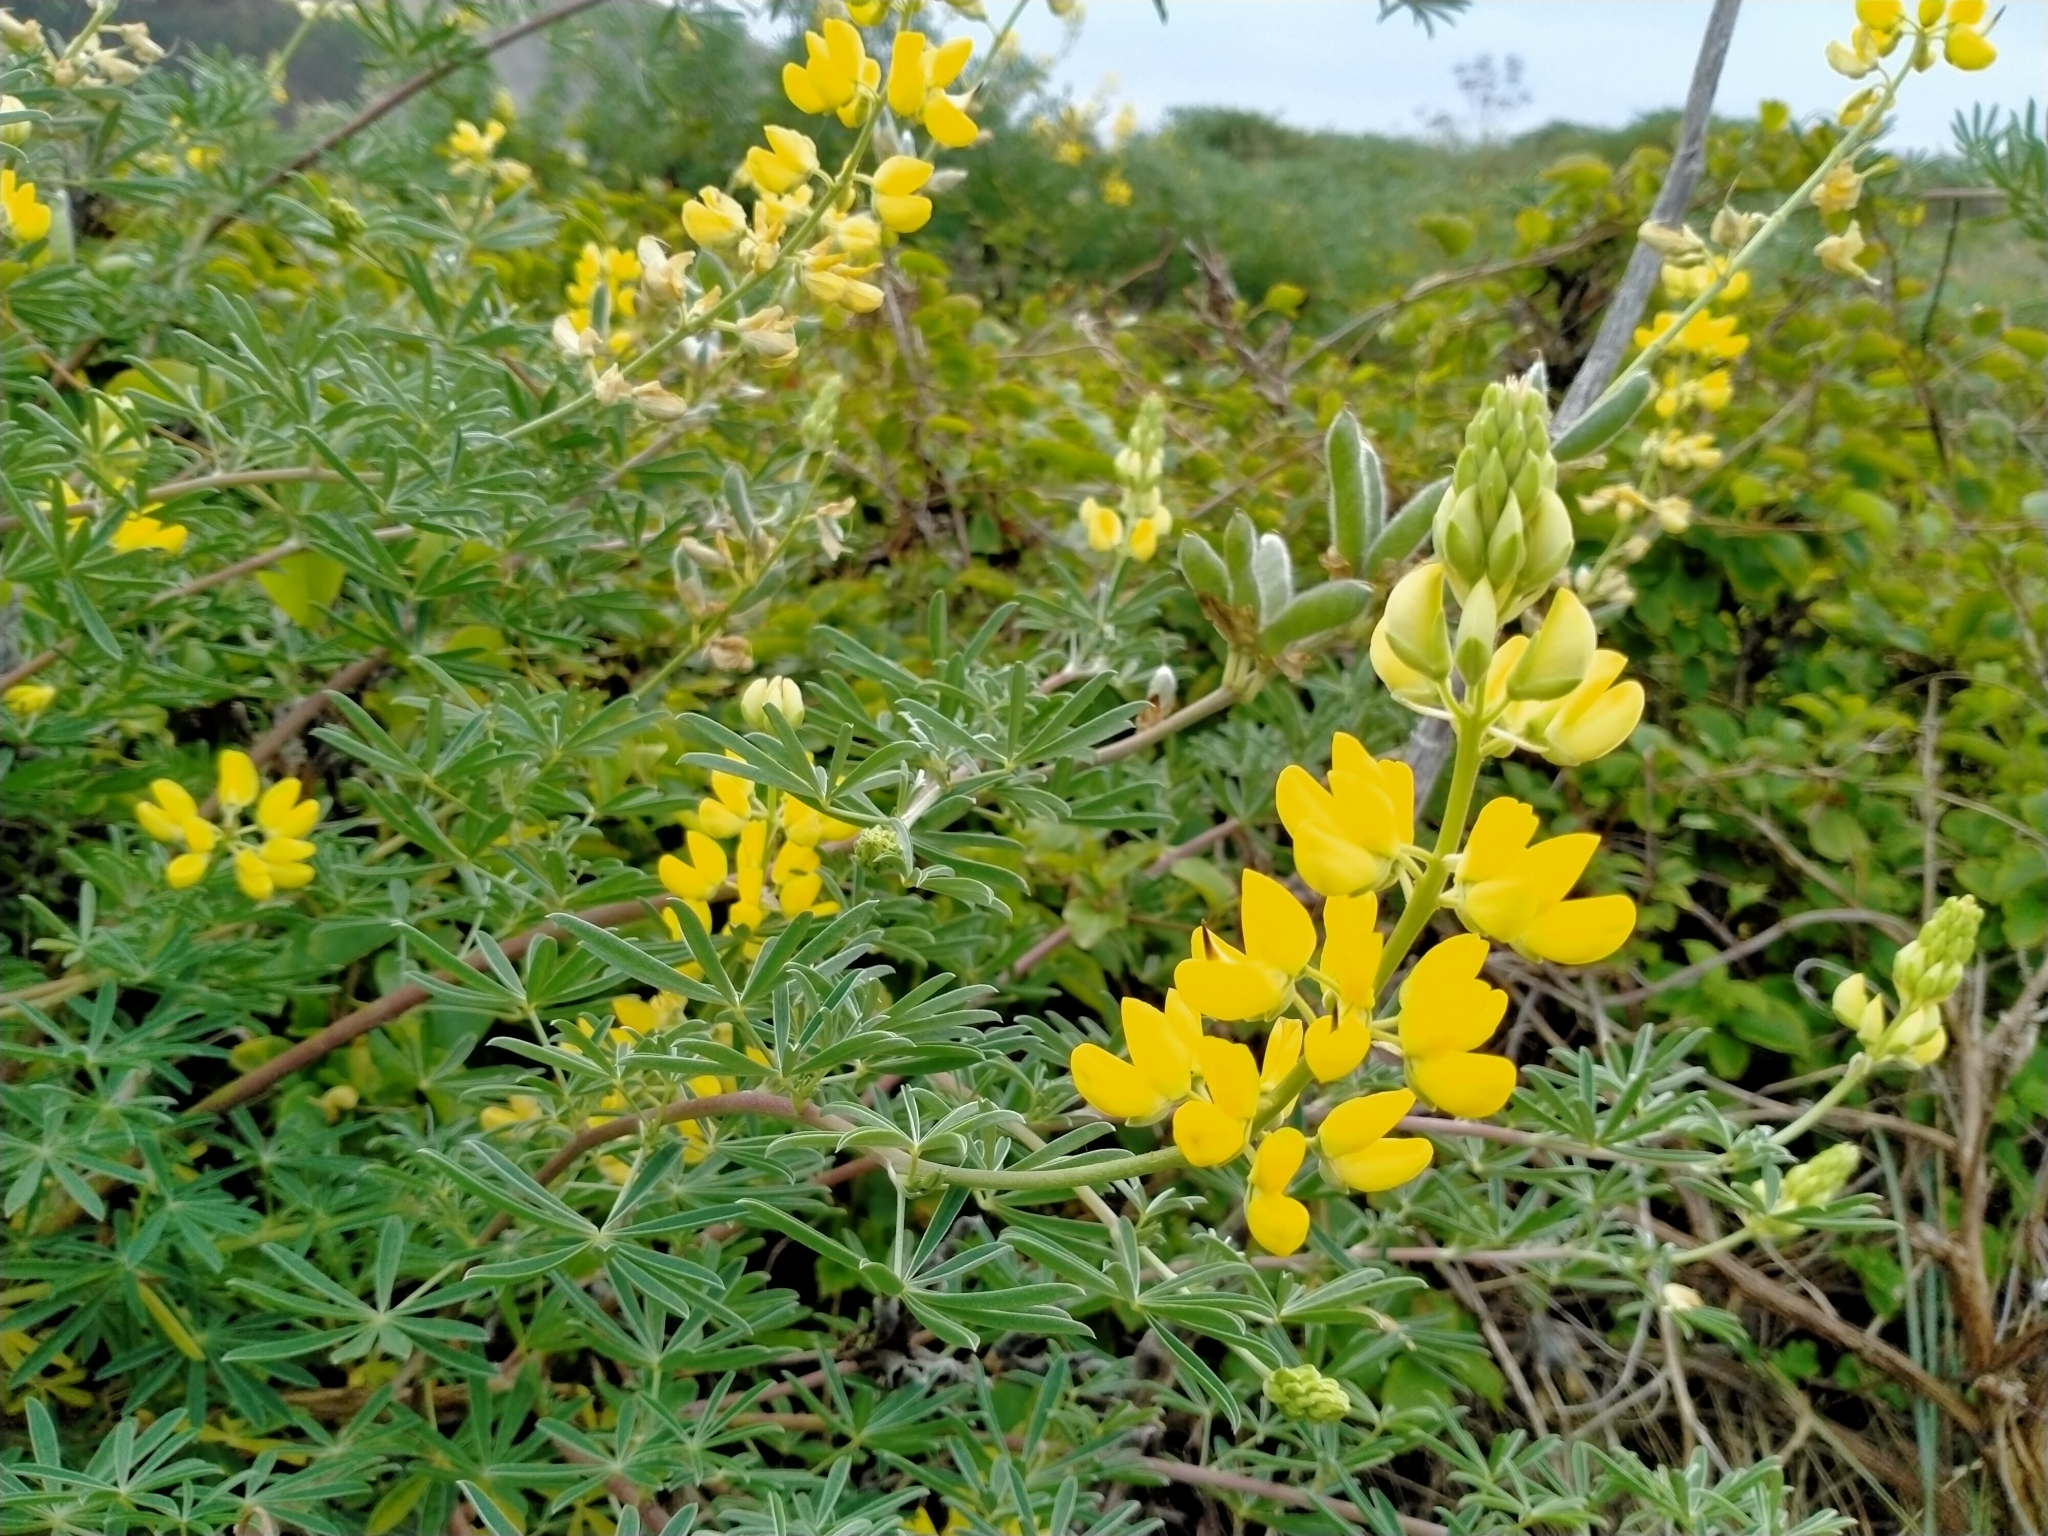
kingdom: Plantae
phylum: Tracheophyta
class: Magnoliopsida
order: Fabales
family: Fabaceae
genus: Lupinus
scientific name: Lupinus arboreus
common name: Yellow bush lupine
